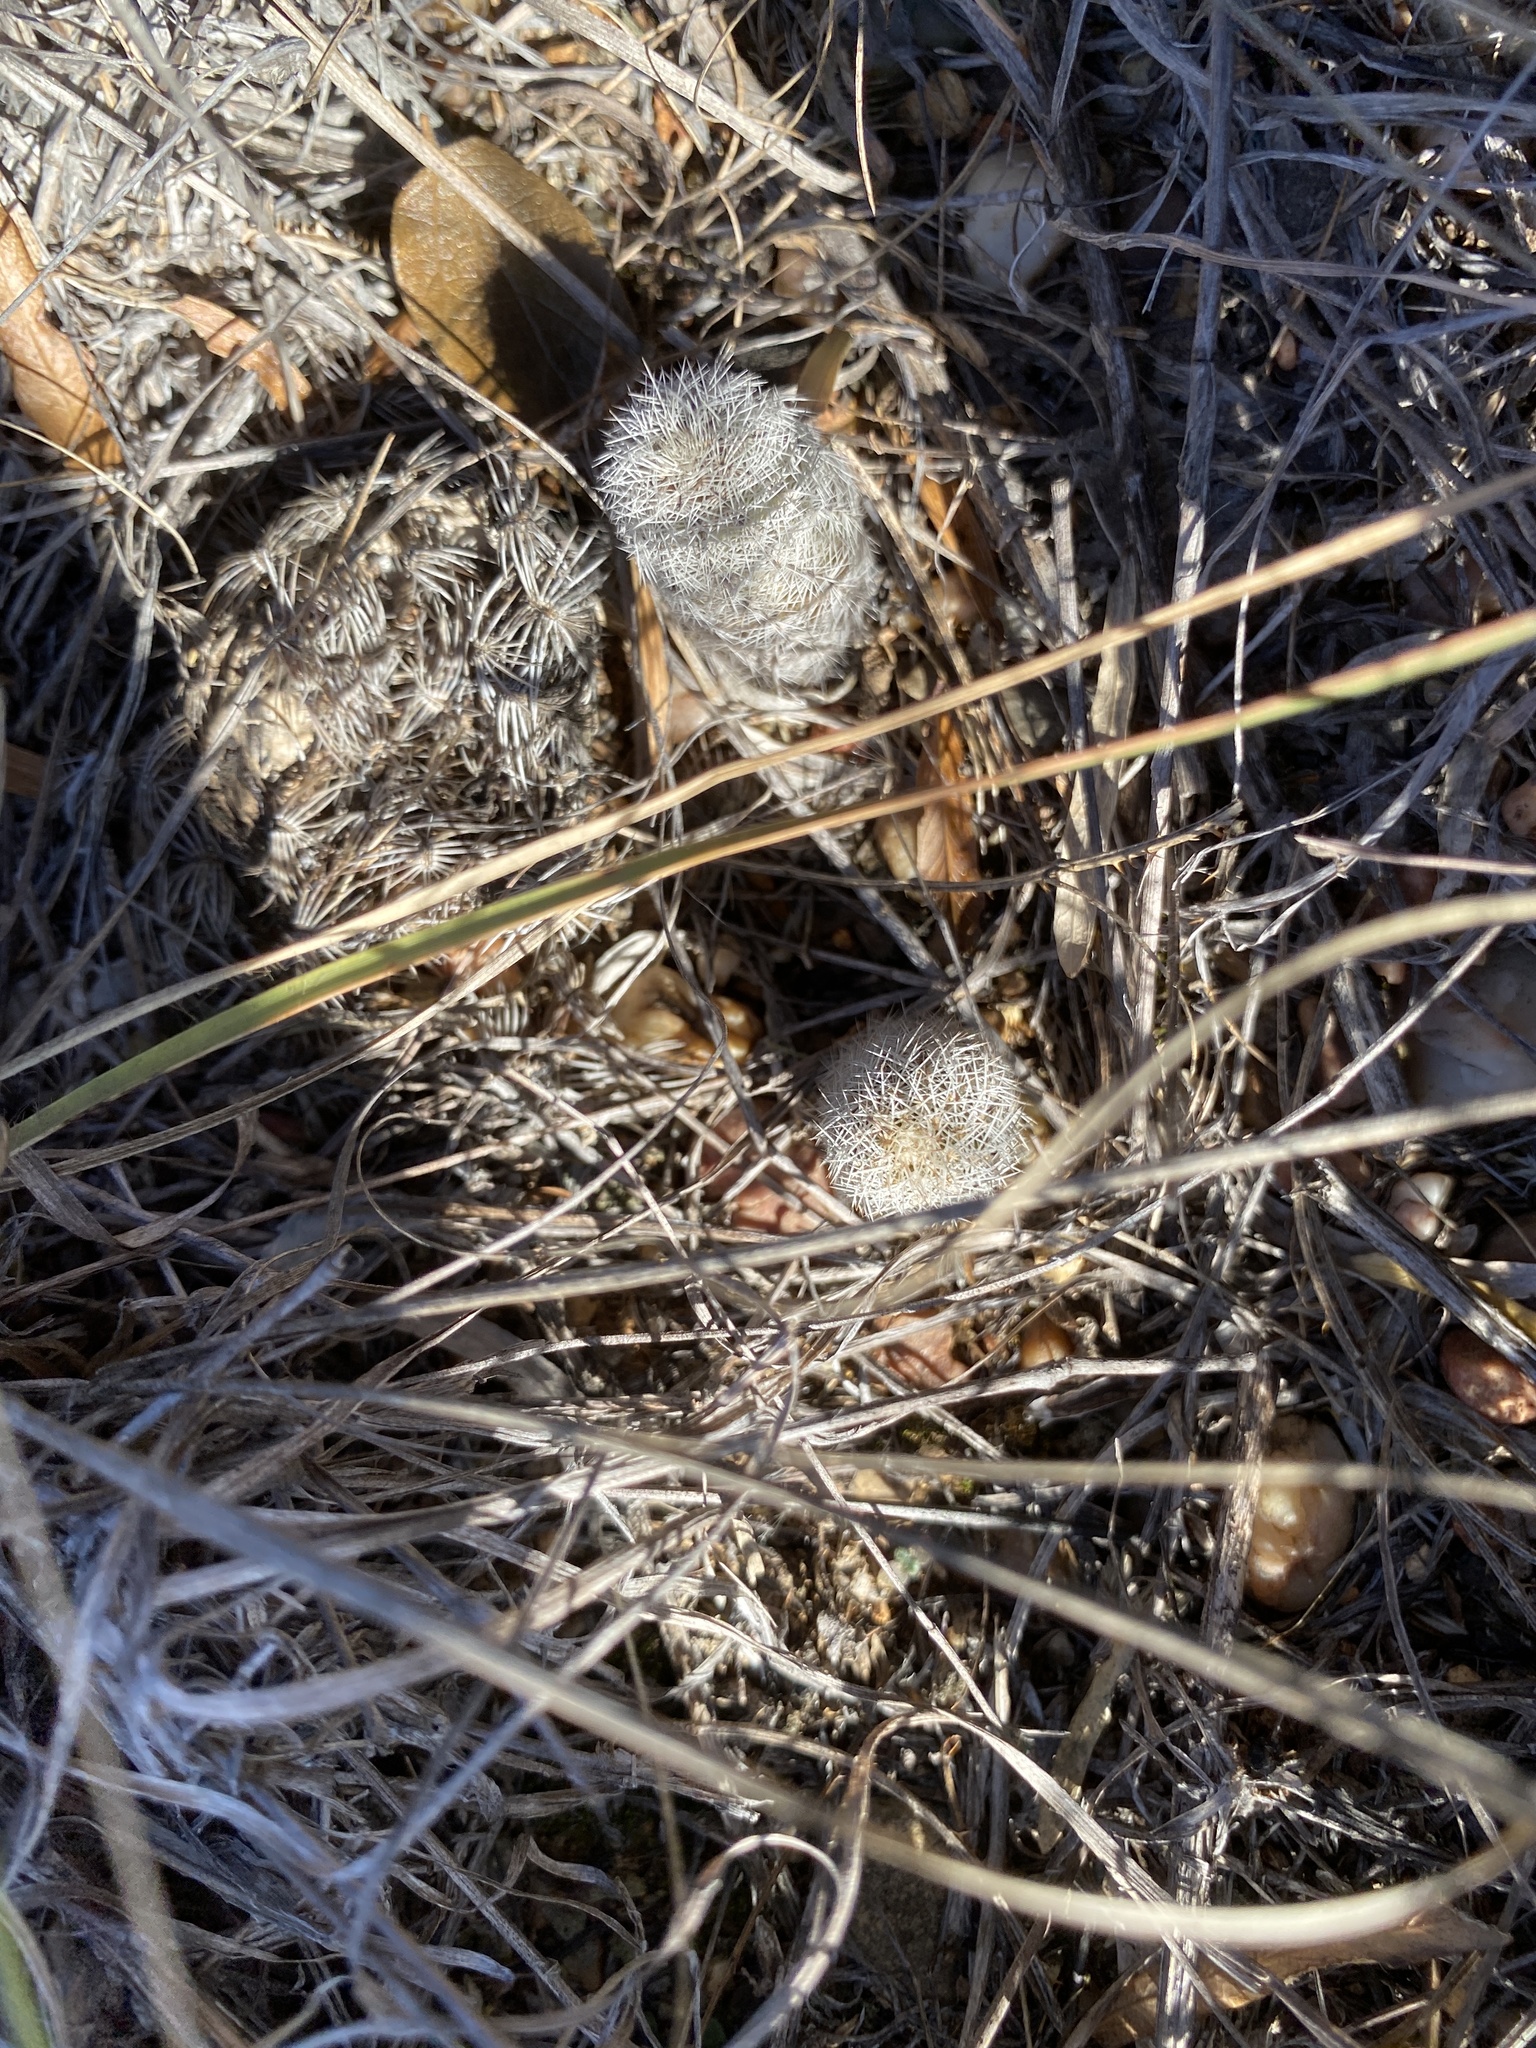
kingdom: Plantae
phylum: Tracheophyta
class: Magnoliopsida
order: Caryophyllales
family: Cactaceae
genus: Echinocereus
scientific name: Echinocereus reichenbachii
